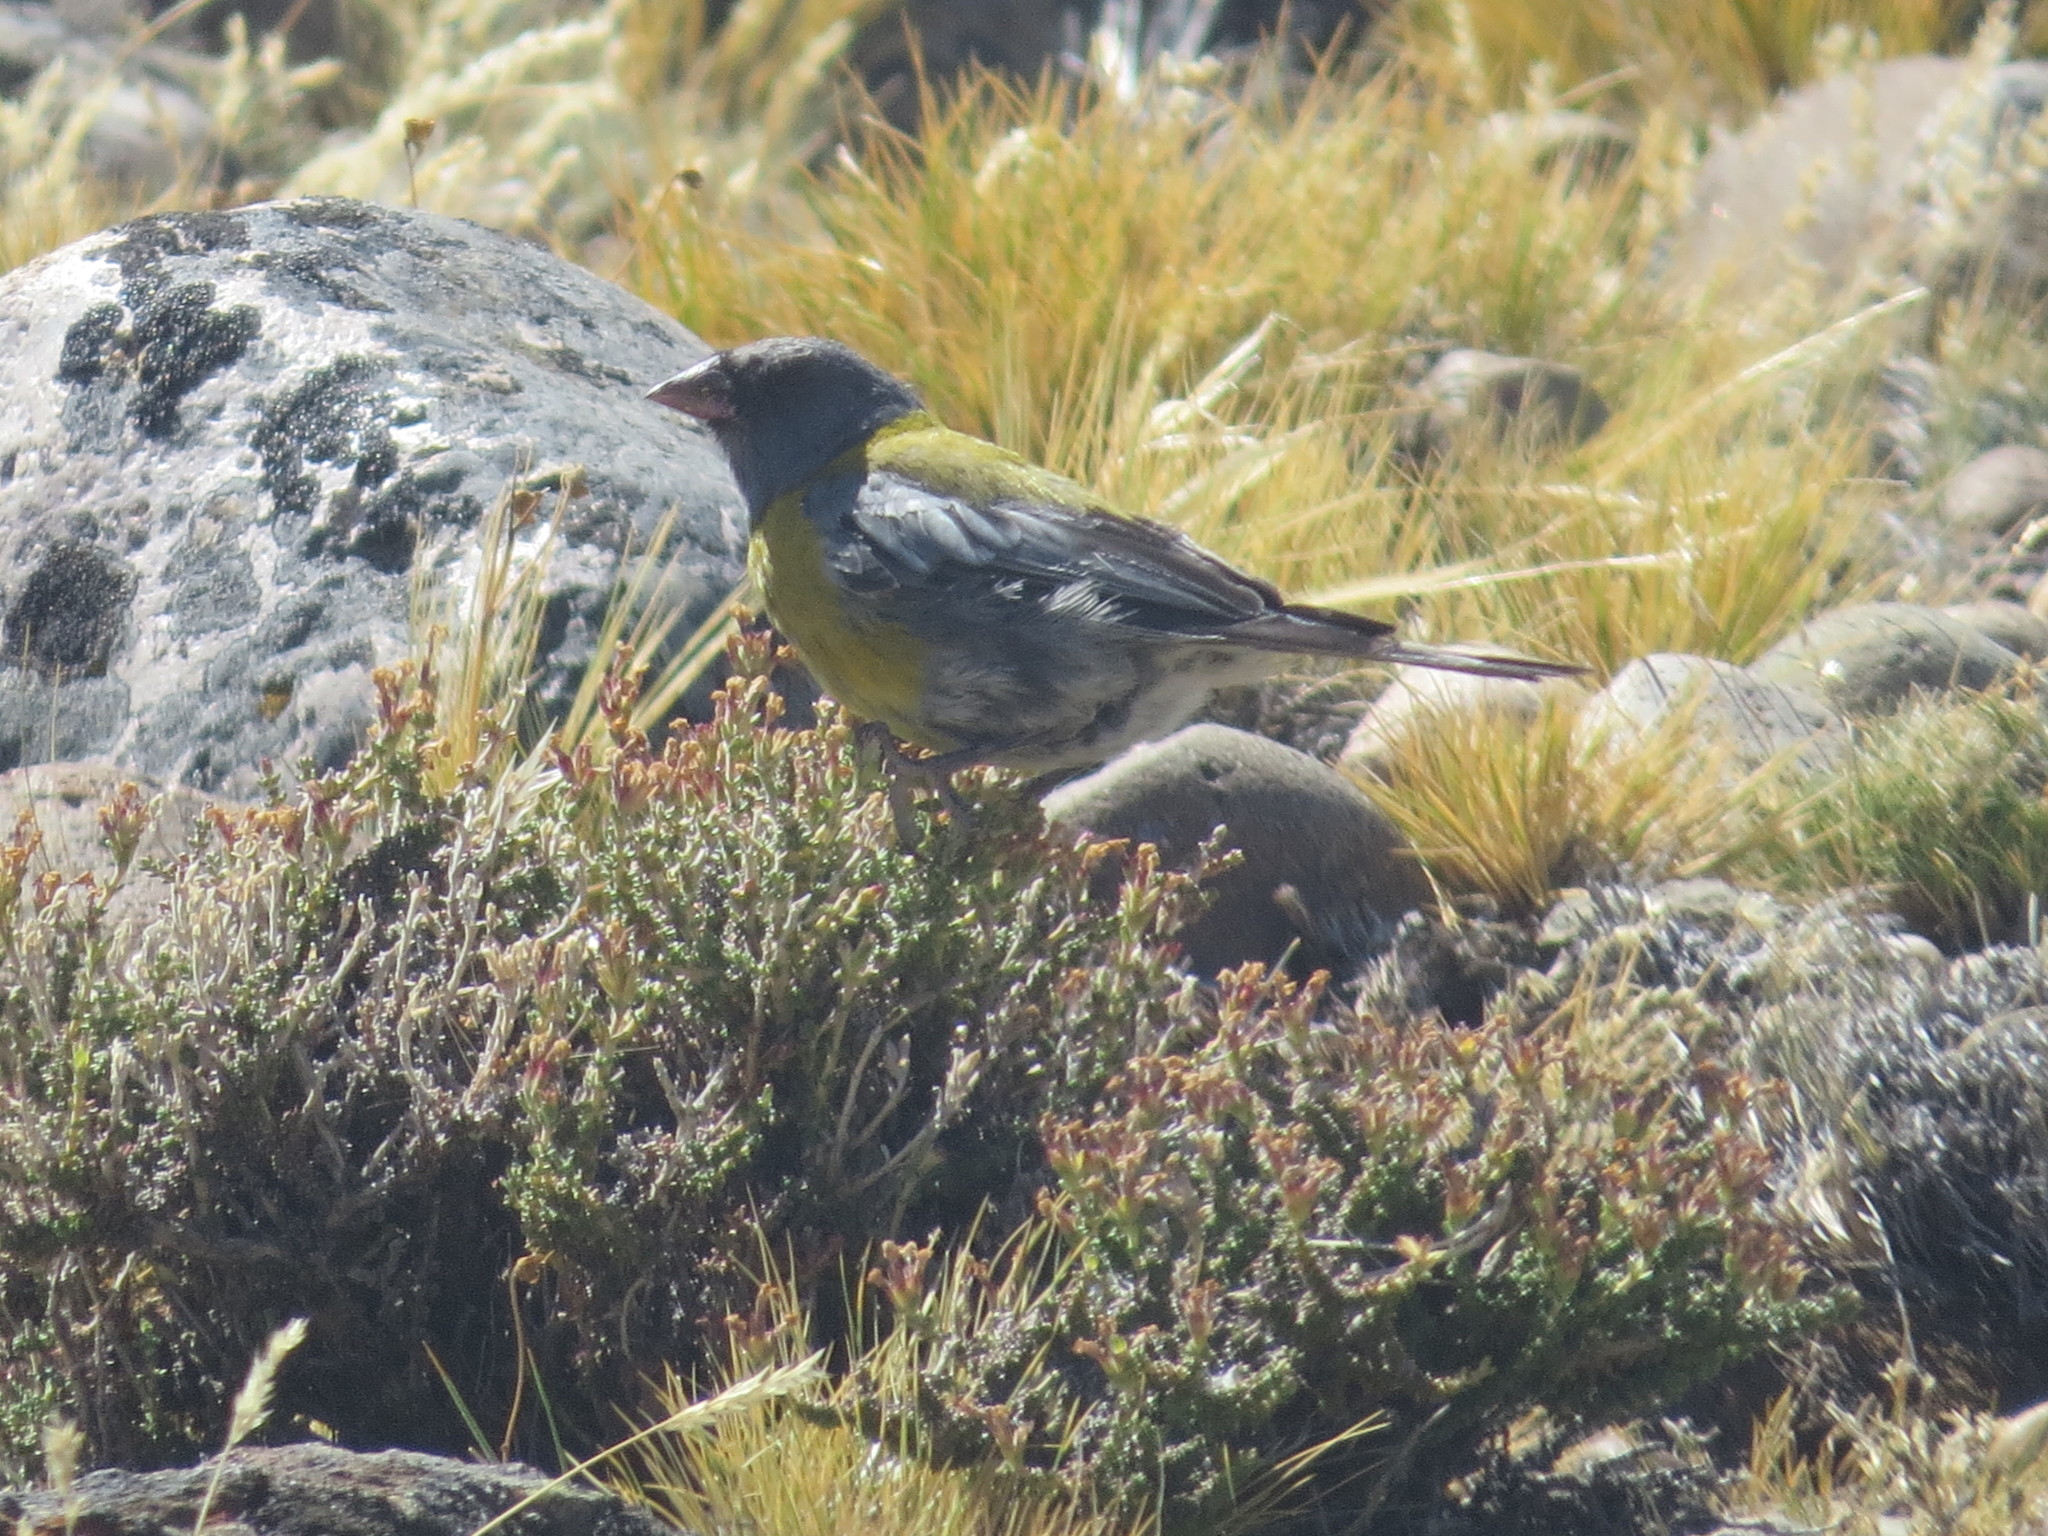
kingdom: Animalia
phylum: Chordata
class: Aves
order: Passeriformes
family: Thraupidae
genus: Phrygilus
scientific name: Phrygilus gayi
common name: Grey-hooded sierra finch
